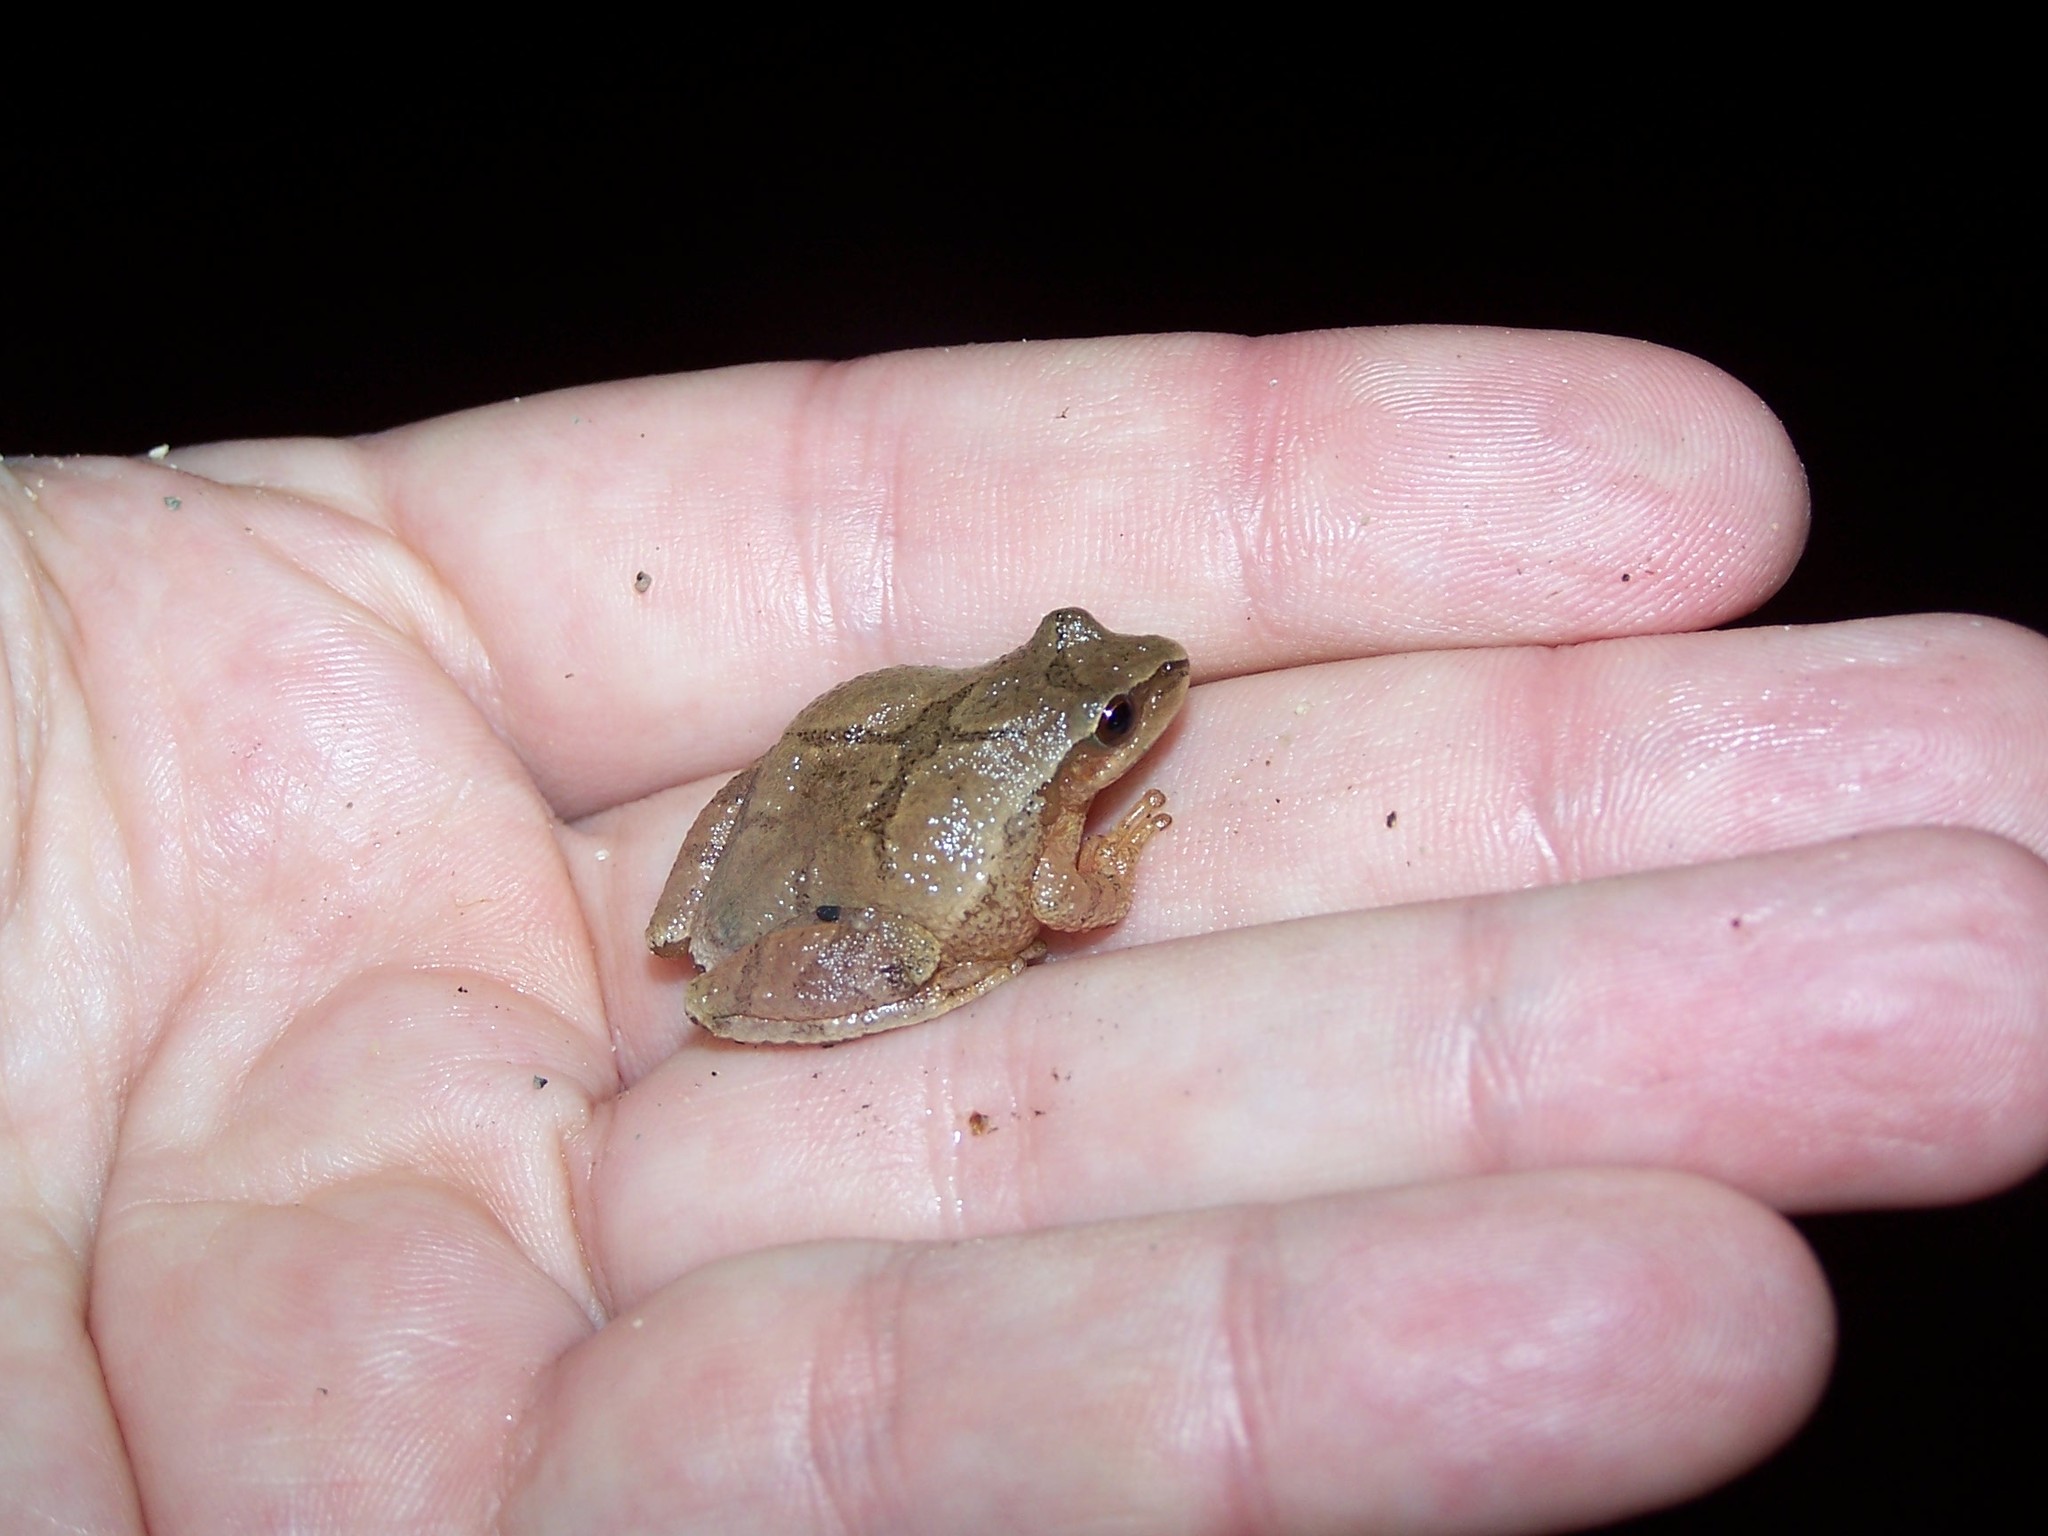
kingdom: Animalia
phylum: Chordata
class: Amphibia
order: Anura
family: Hylidae
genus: Pseudacris
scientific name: Pseudacris crucifer
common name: Spring peeper
